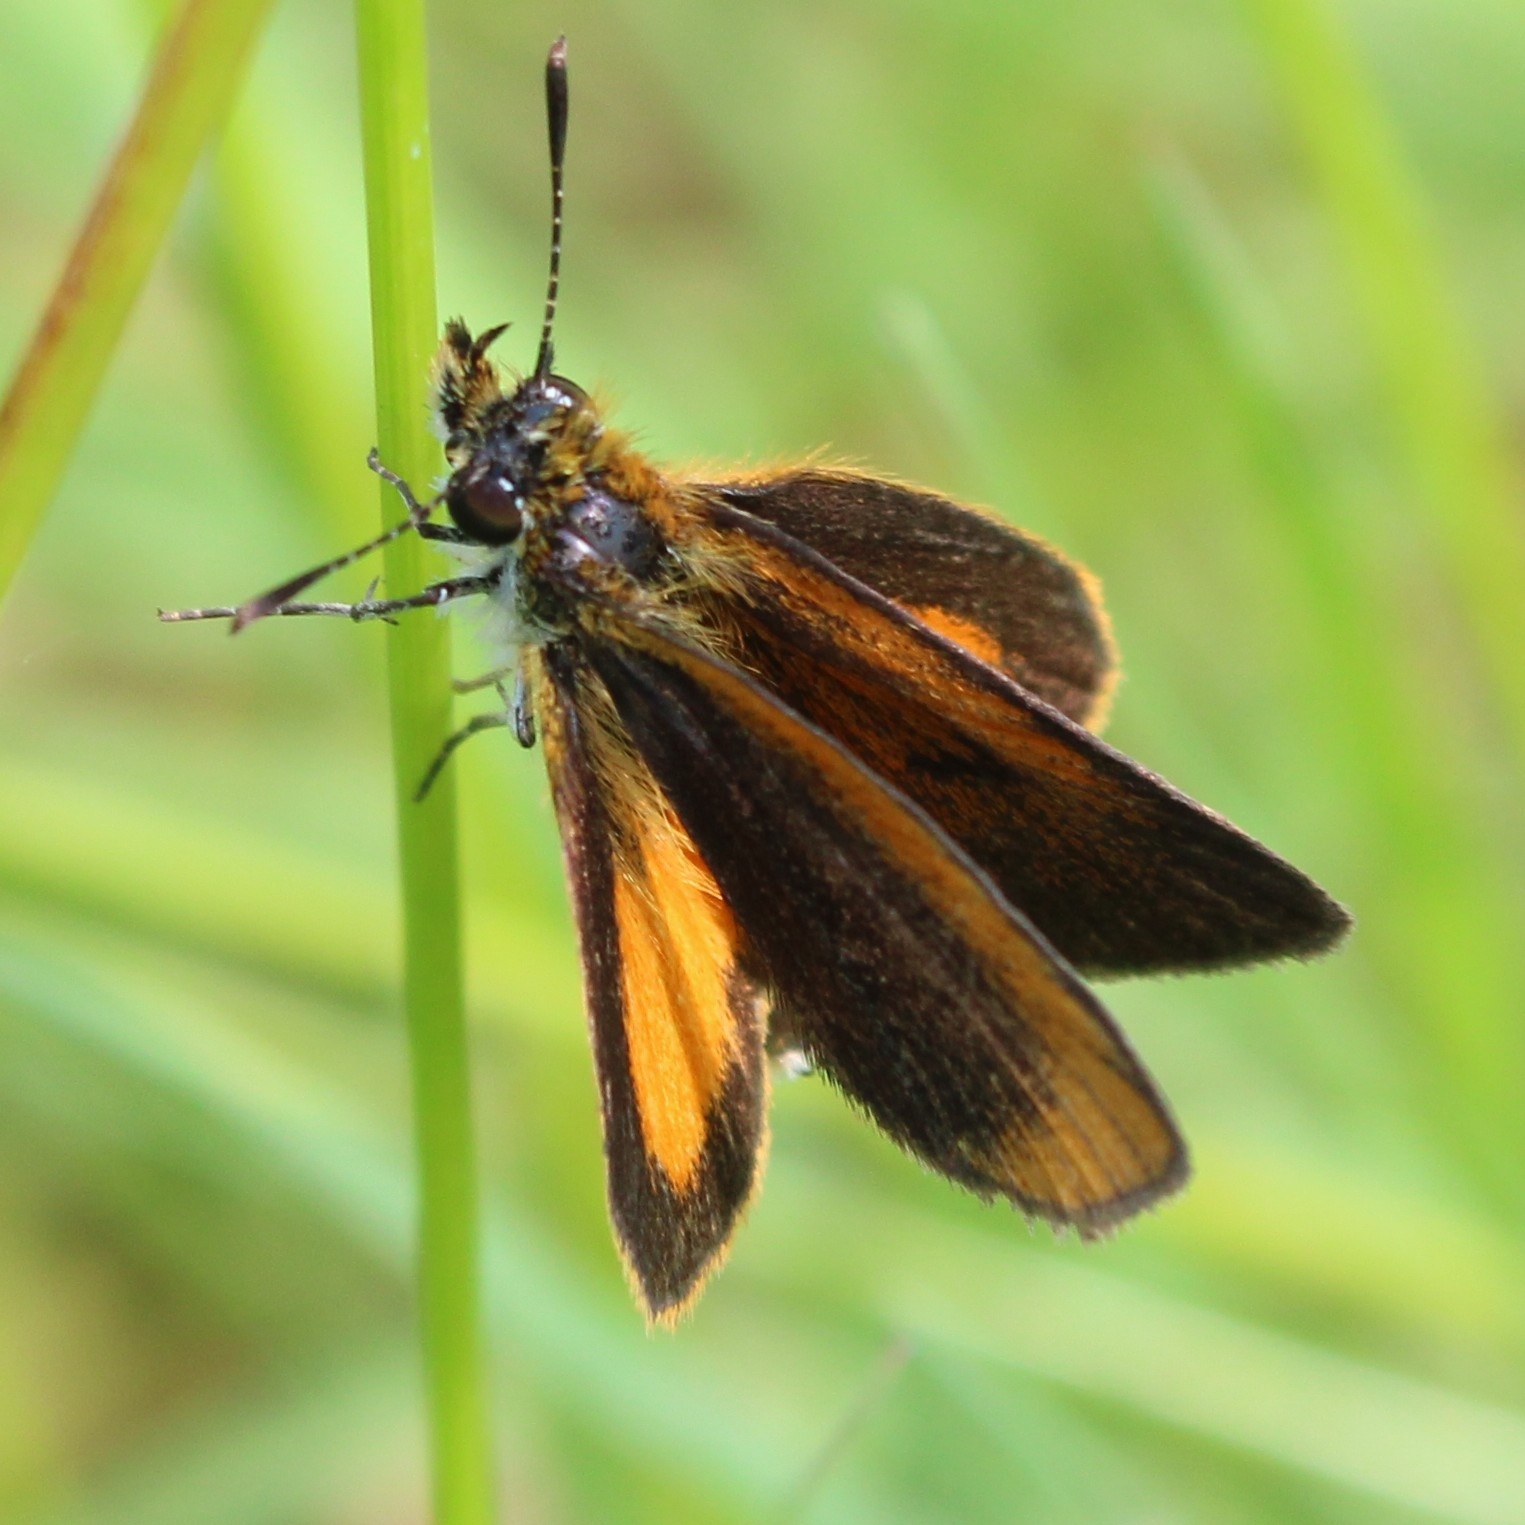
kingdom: Animalia
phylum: Arthropoda
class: Insecta
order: Lepidoptera
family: Hesperiidae
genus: Ancyloxypha
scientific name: Ancyloxypha numitor
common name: Least skipper
